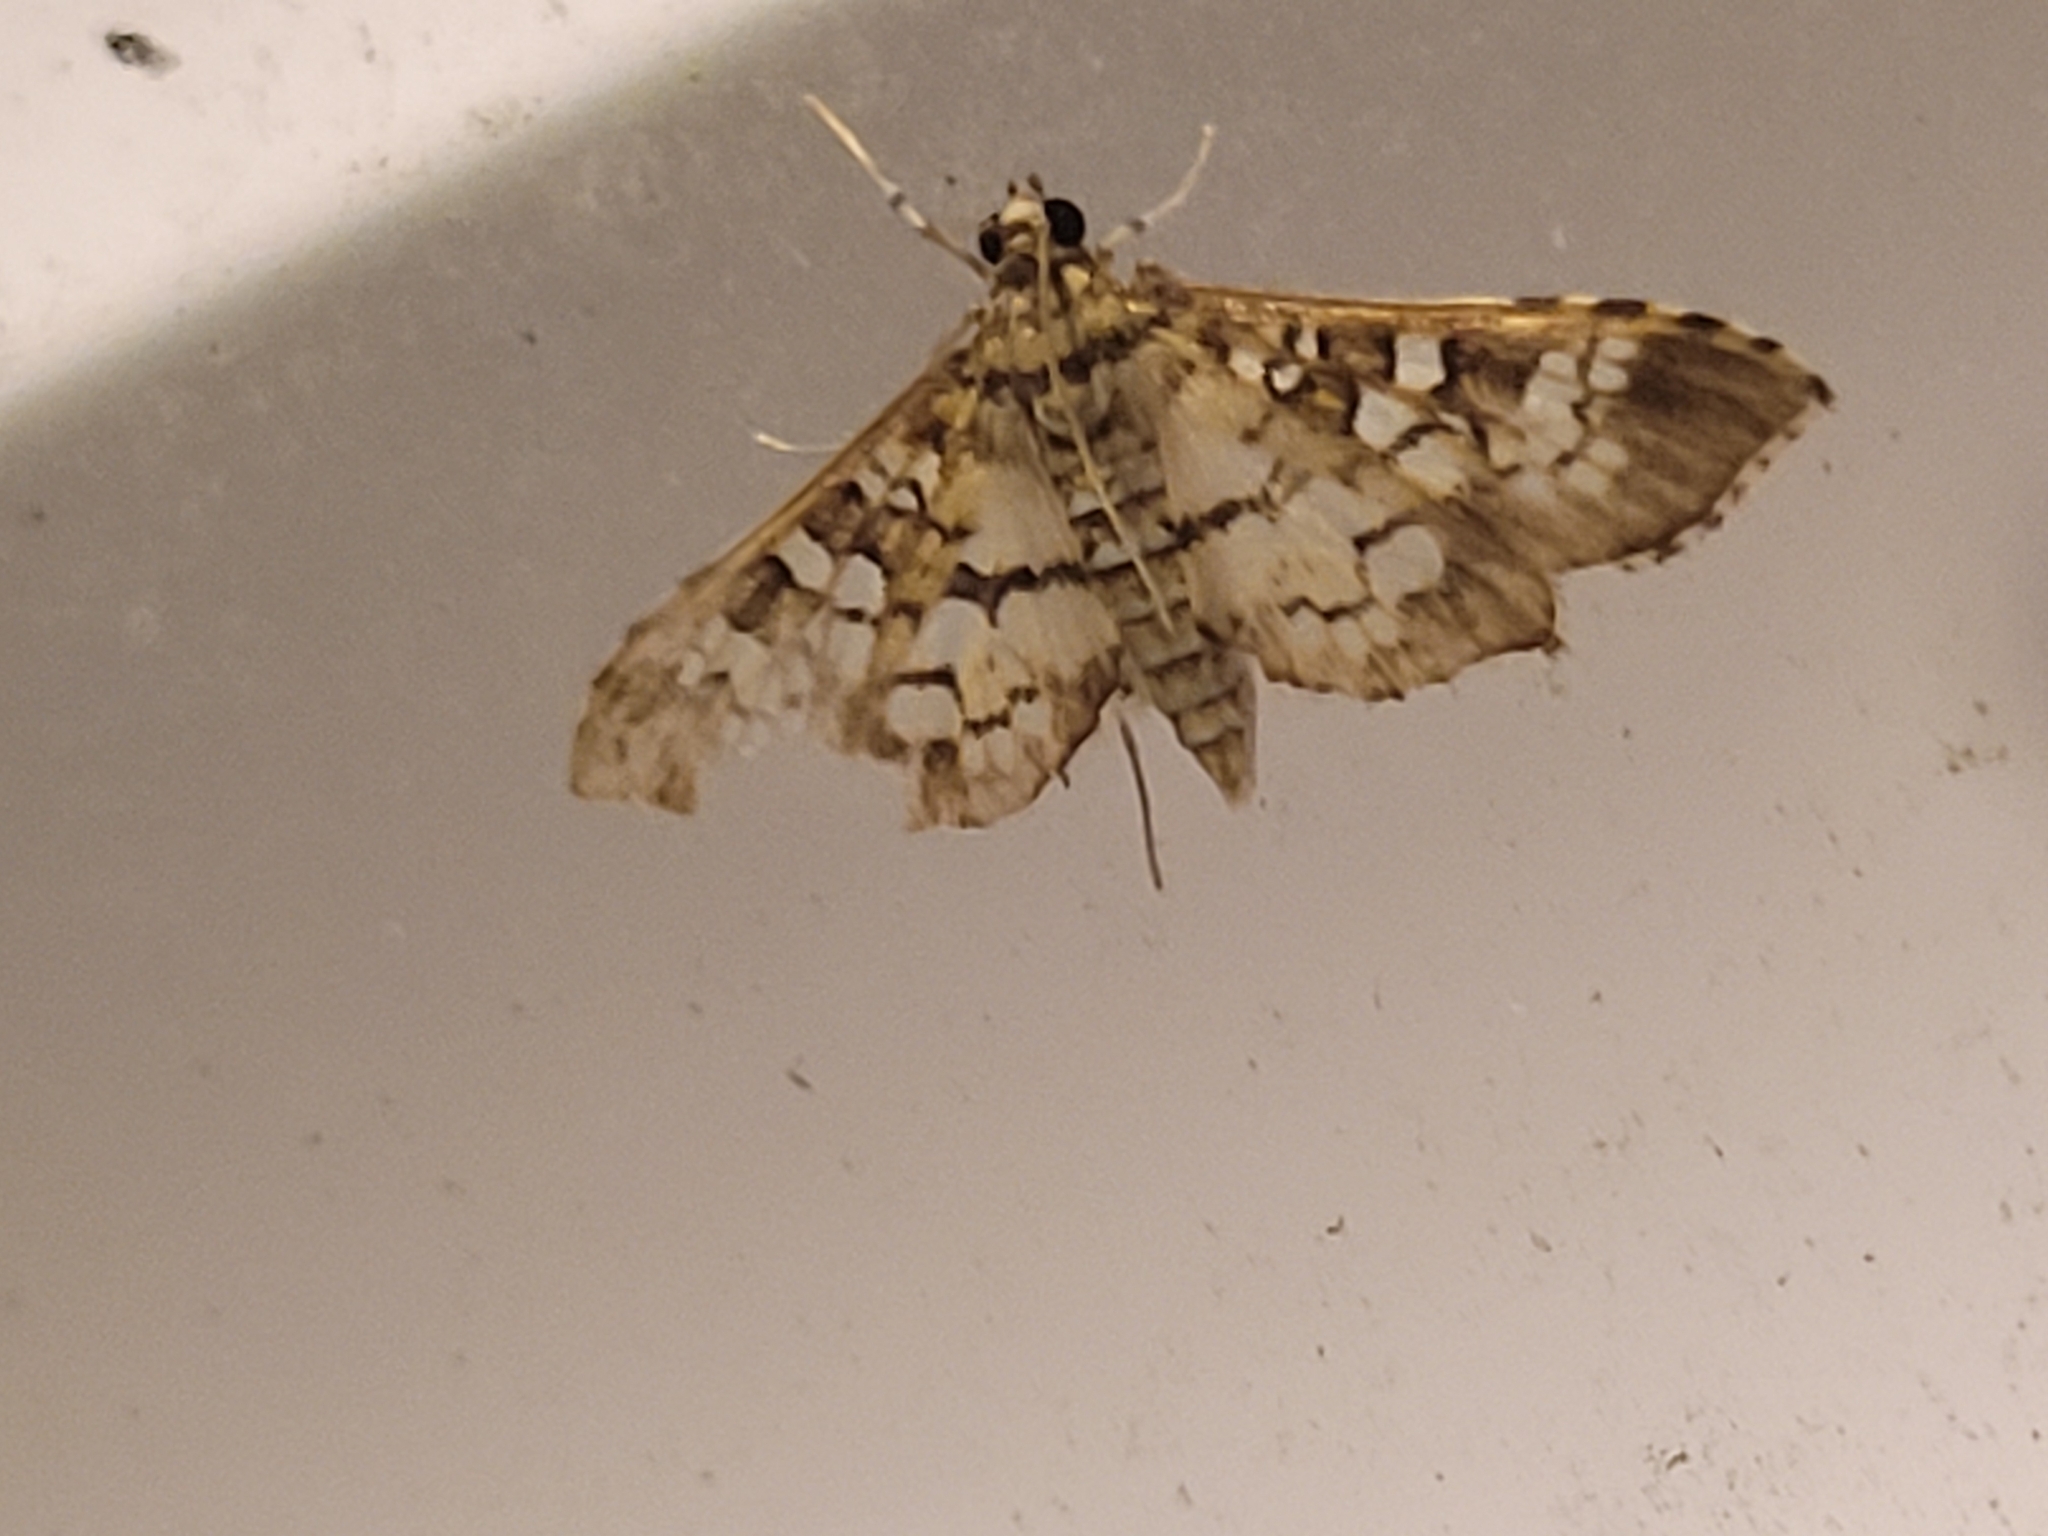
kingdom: Animalia
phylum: Arthropoda
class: Insecta
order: Lepidoptera
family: Crambidae
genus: Samea
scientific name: Samea ecclesialis
